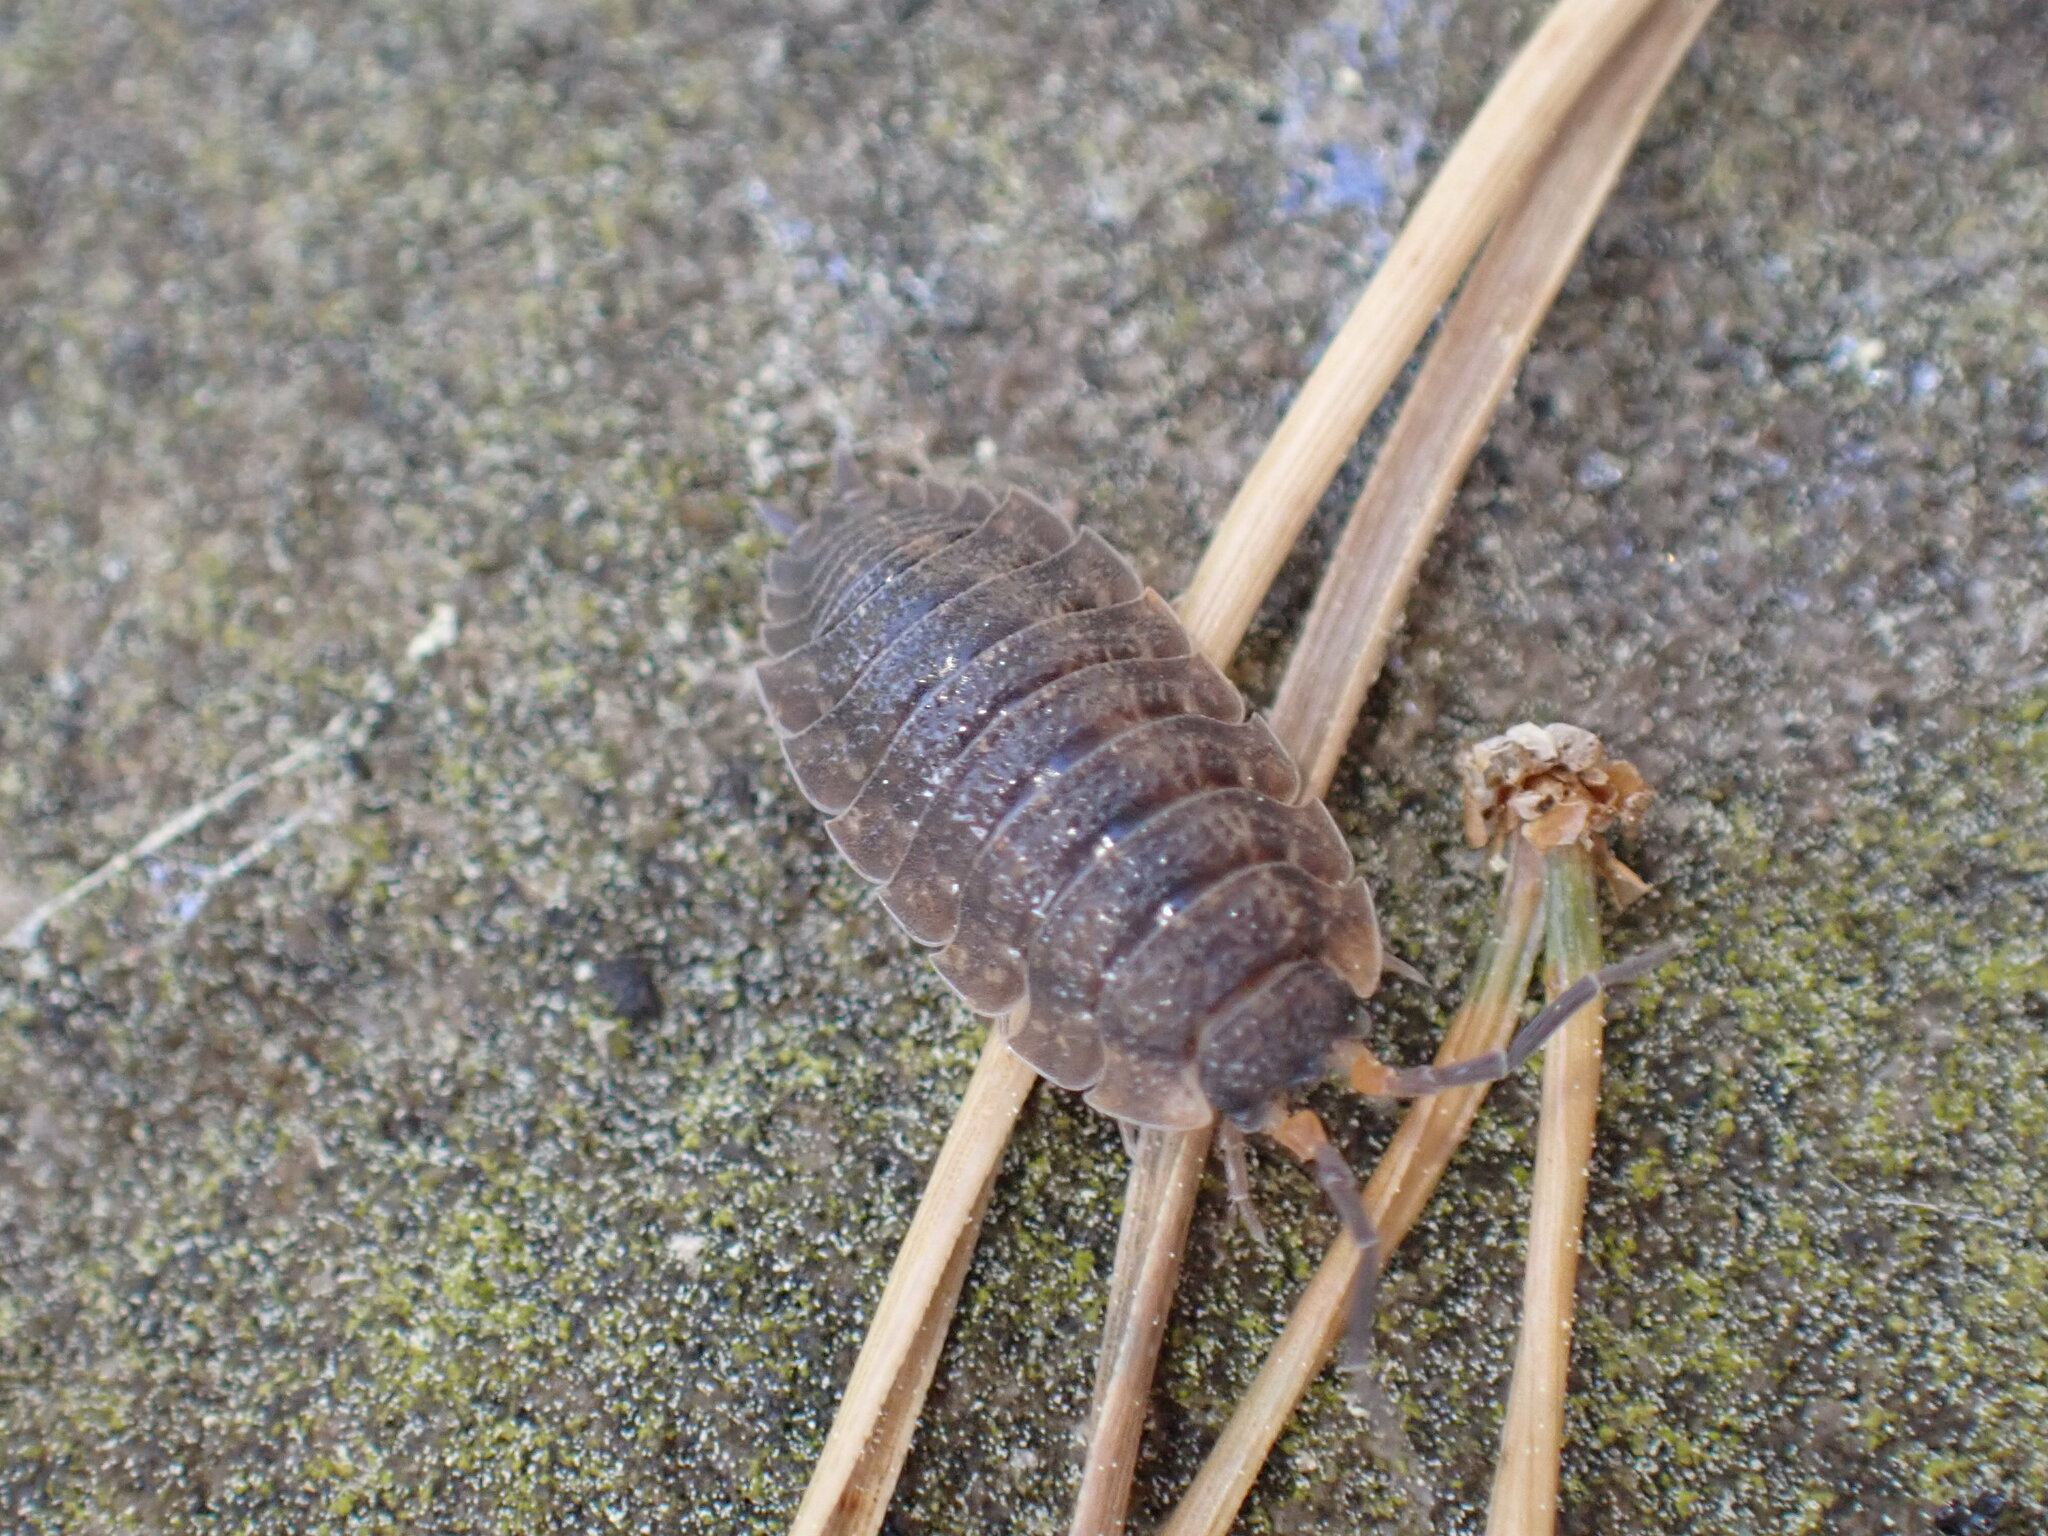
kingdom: Animalia
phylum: Arthropoda
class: Malacostraca
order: Isopoda
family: Porcellionidae
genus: Porcellio
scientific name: Porcellio scaber
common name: Common rough woodlouse
